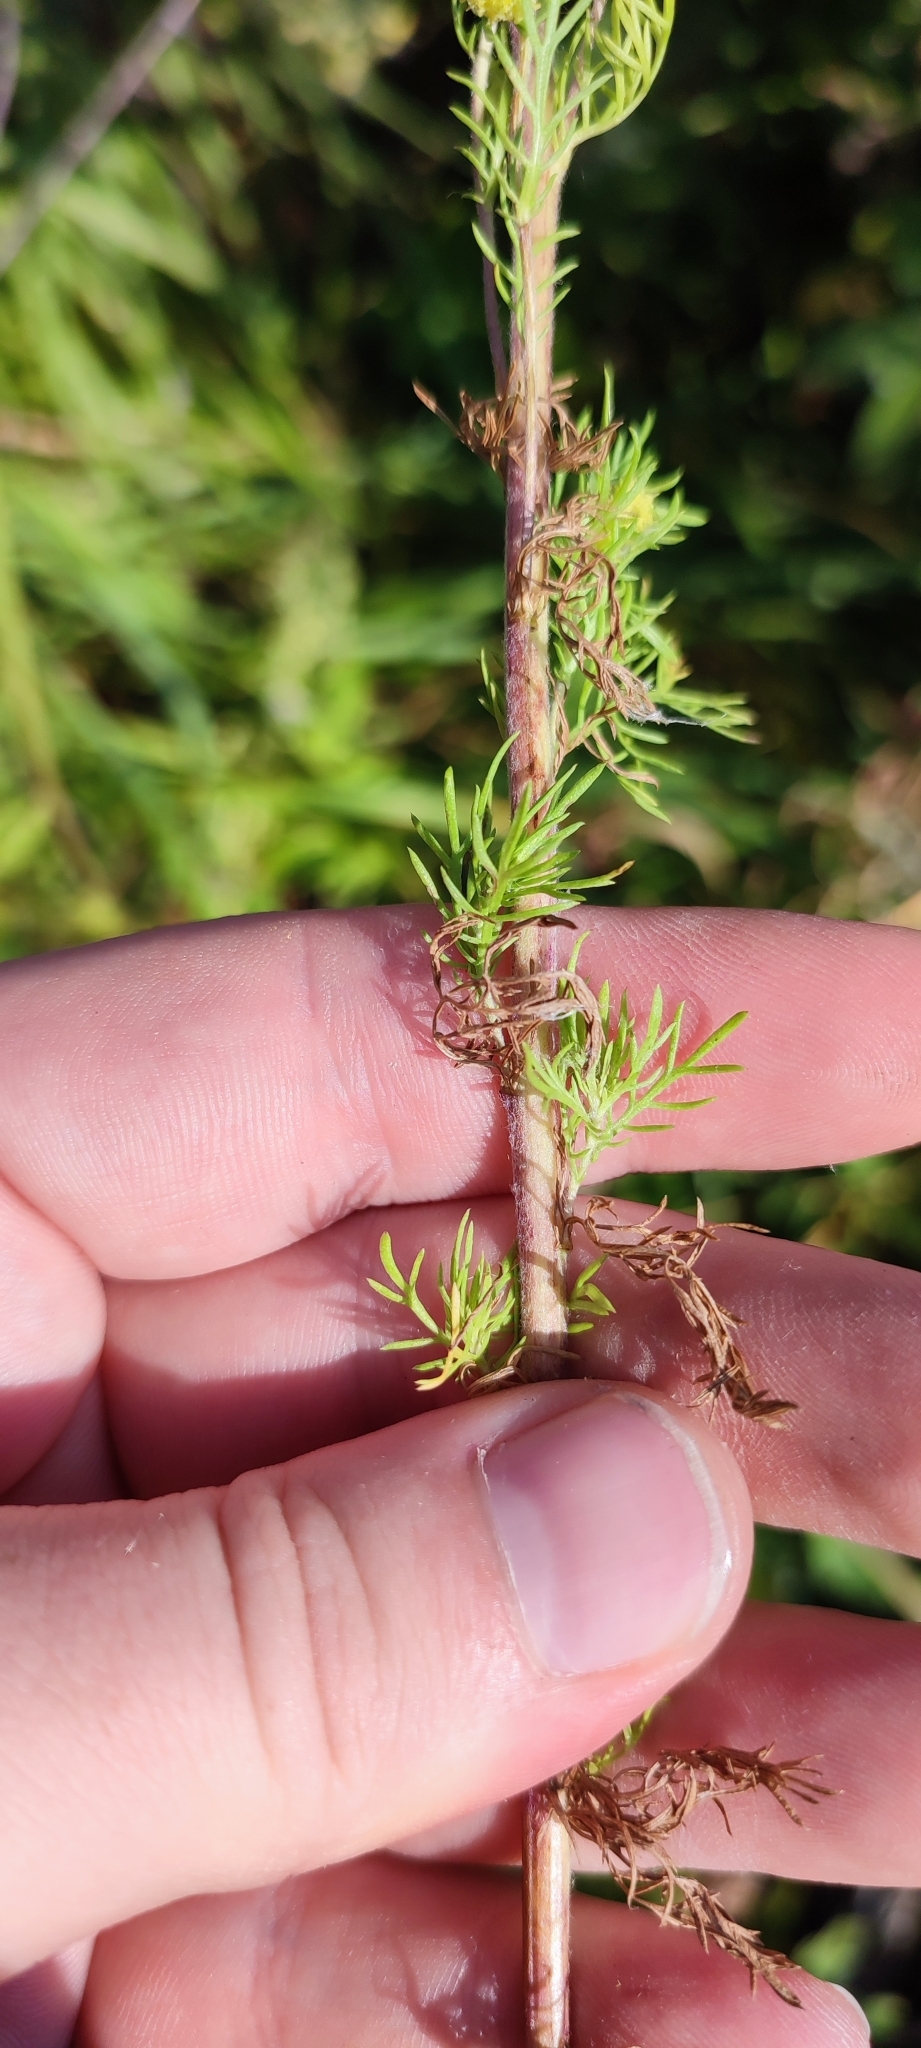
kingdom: Plantae
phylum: Tracheophyta
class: Magnoliopsida
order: Asterales
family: Asteraceae
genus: Artemisia
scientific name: Artemisia macrantha
